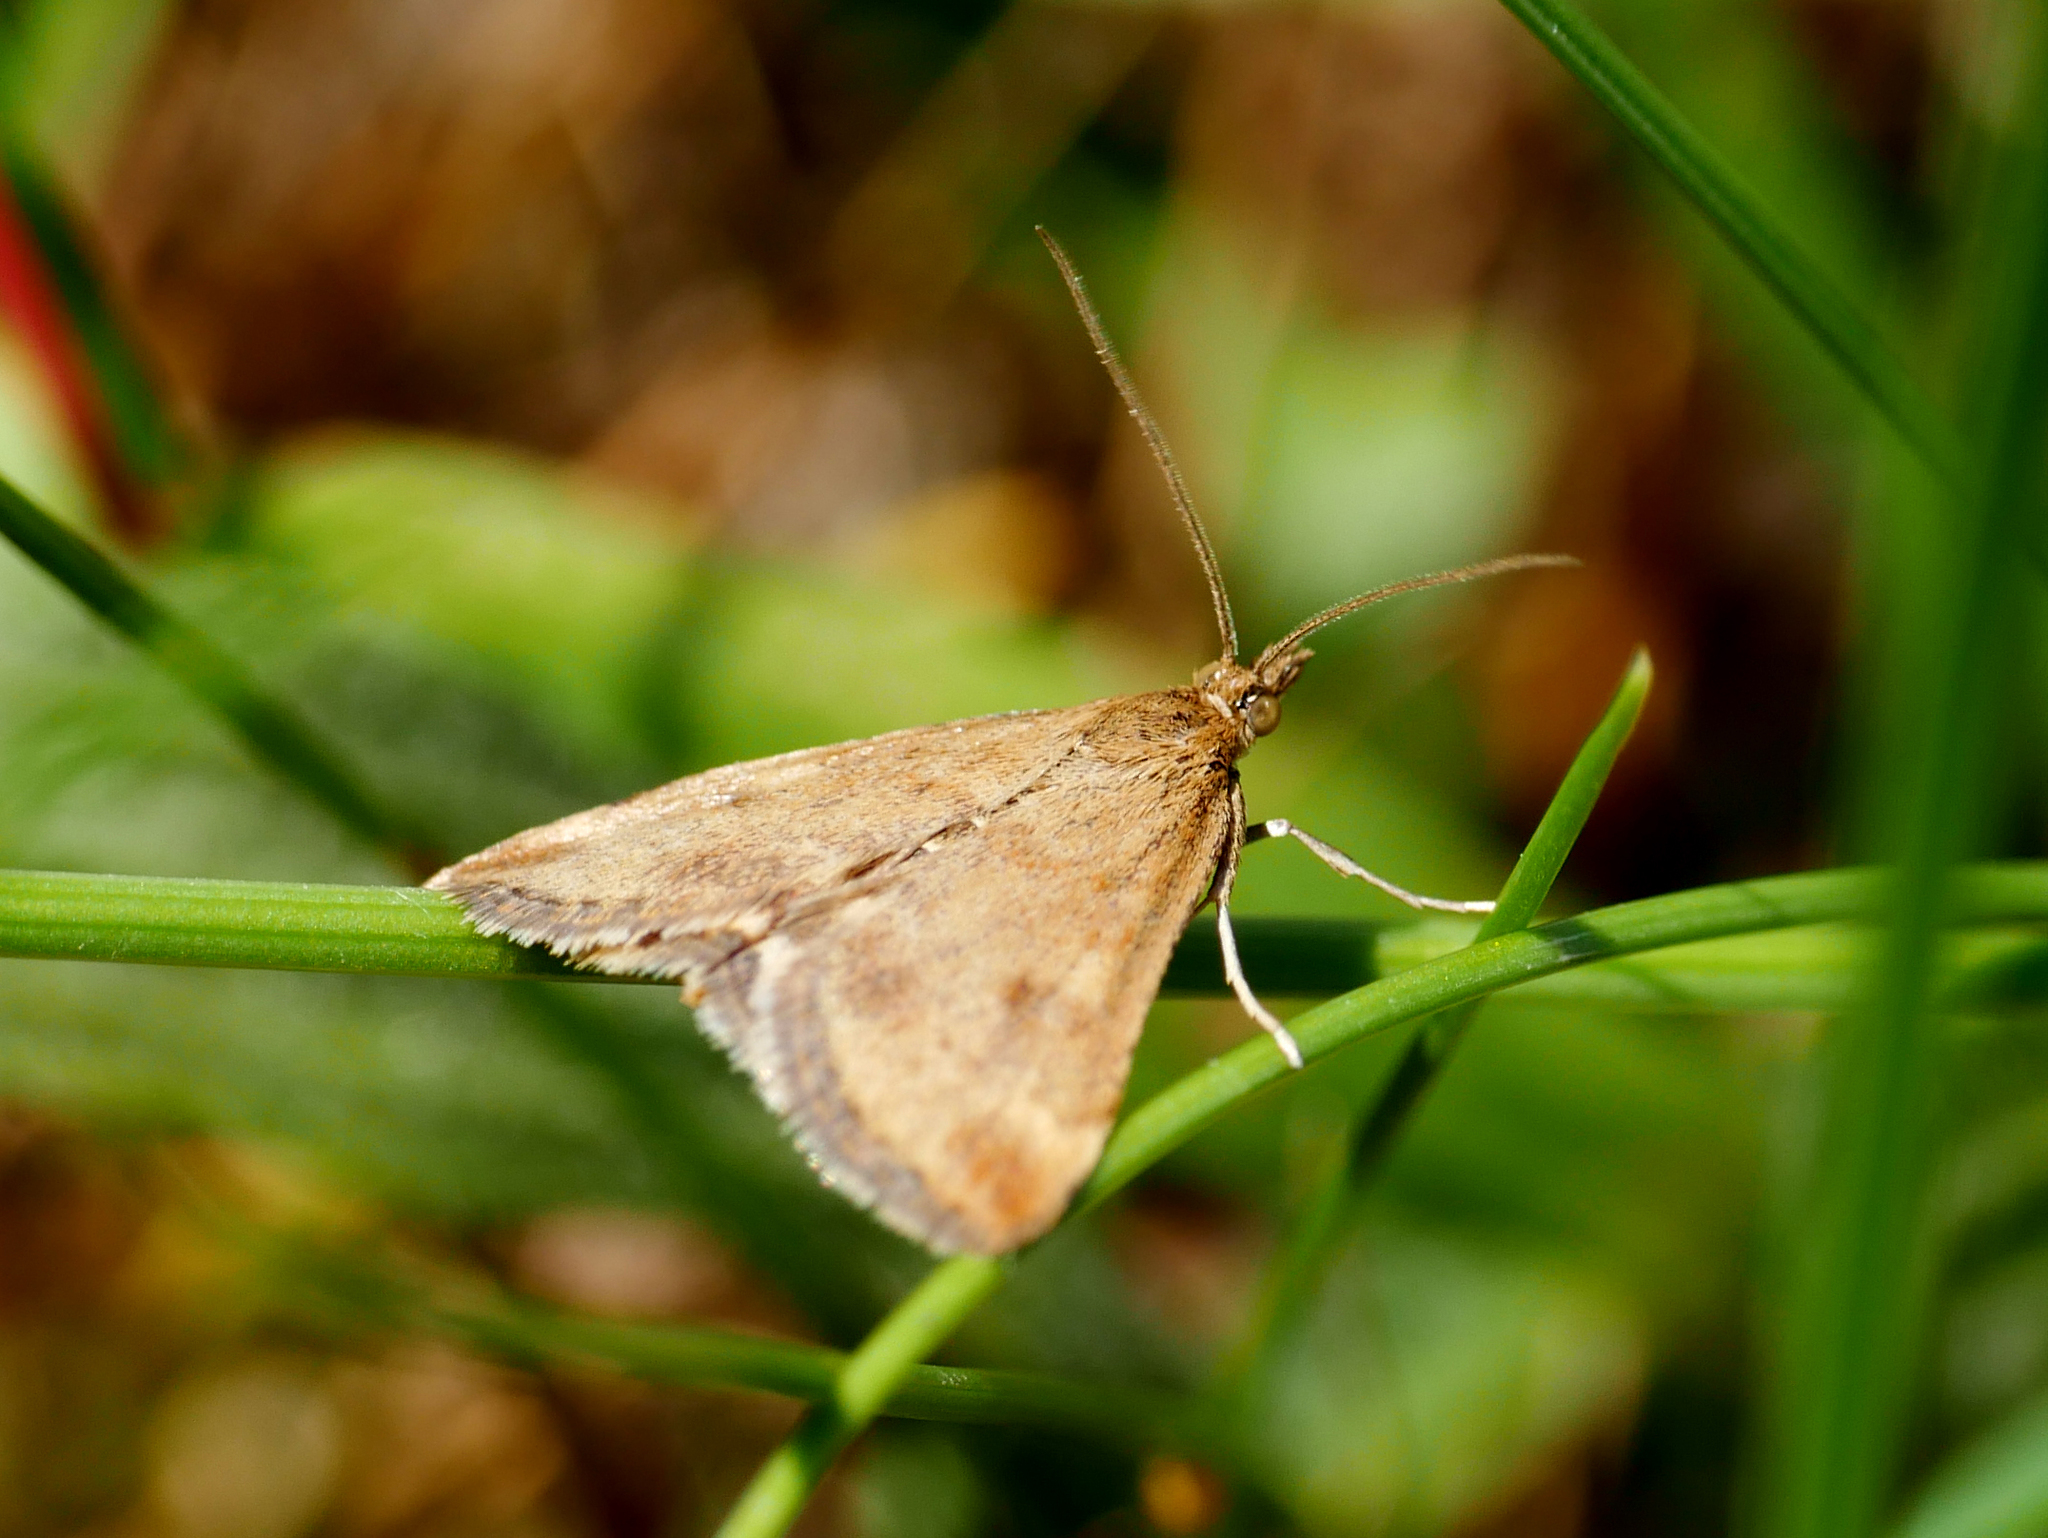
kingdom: Animalia
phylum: Arthropoda
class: Insecta
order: Lepidoptera
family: Crambidae
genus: Pyrausta
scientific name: Pyrausta despicata
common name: Straw-barred pearl
